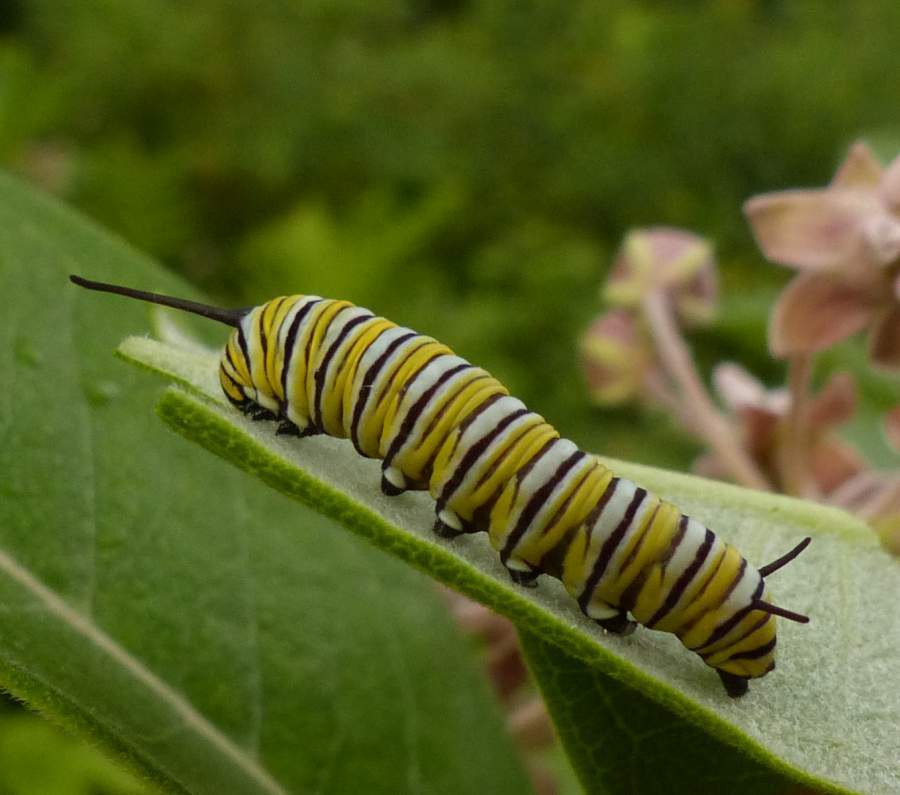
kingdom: Animalia
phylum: Arthropoda
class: Insecta
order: Lepidoptera
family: Nymphalidae
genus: Danaus
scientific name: Danaus plexippus
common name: Monarch
